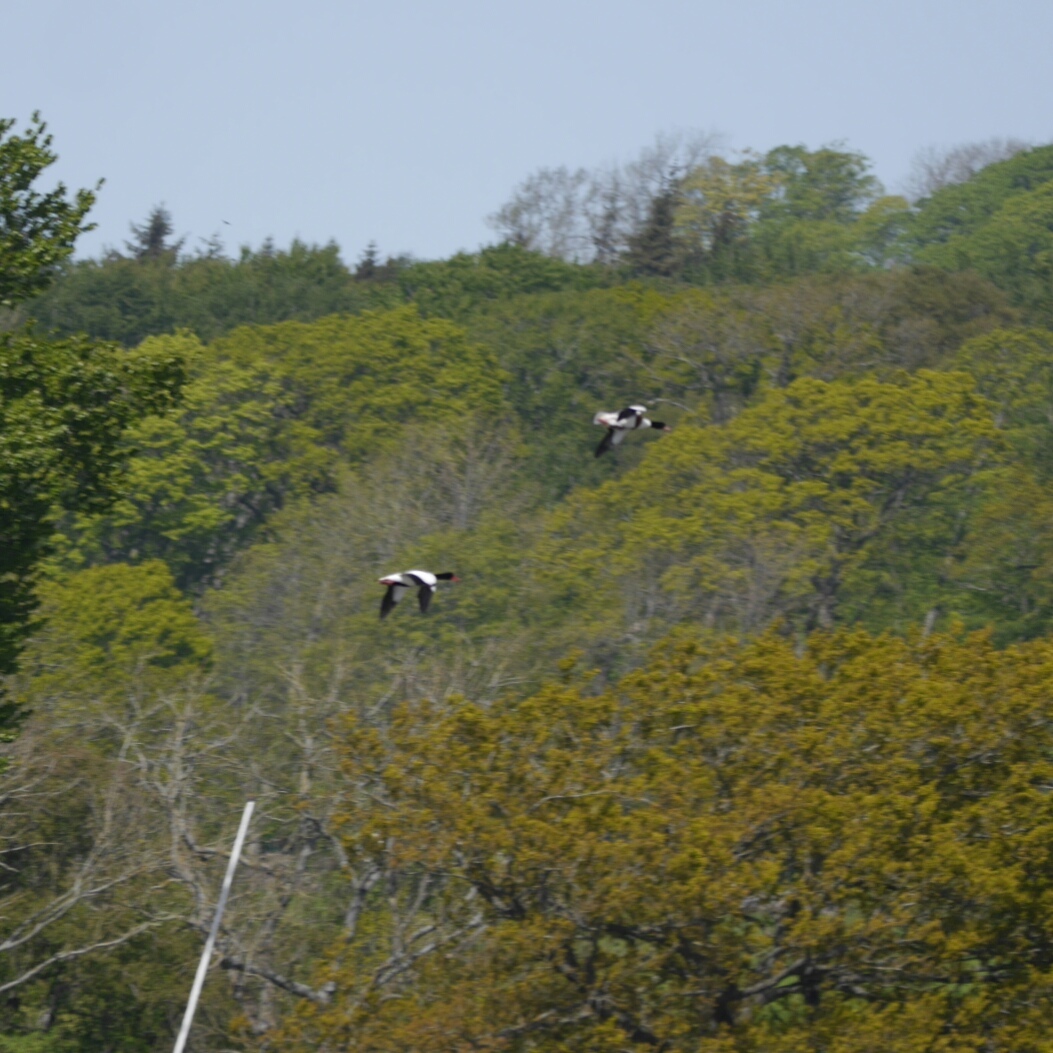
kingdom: Animalia
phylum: Chordata
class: Aves
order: Anseriformes
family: Anatidae
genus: Tadorna
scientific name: Tadorna tadorna
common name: Common shelduck
